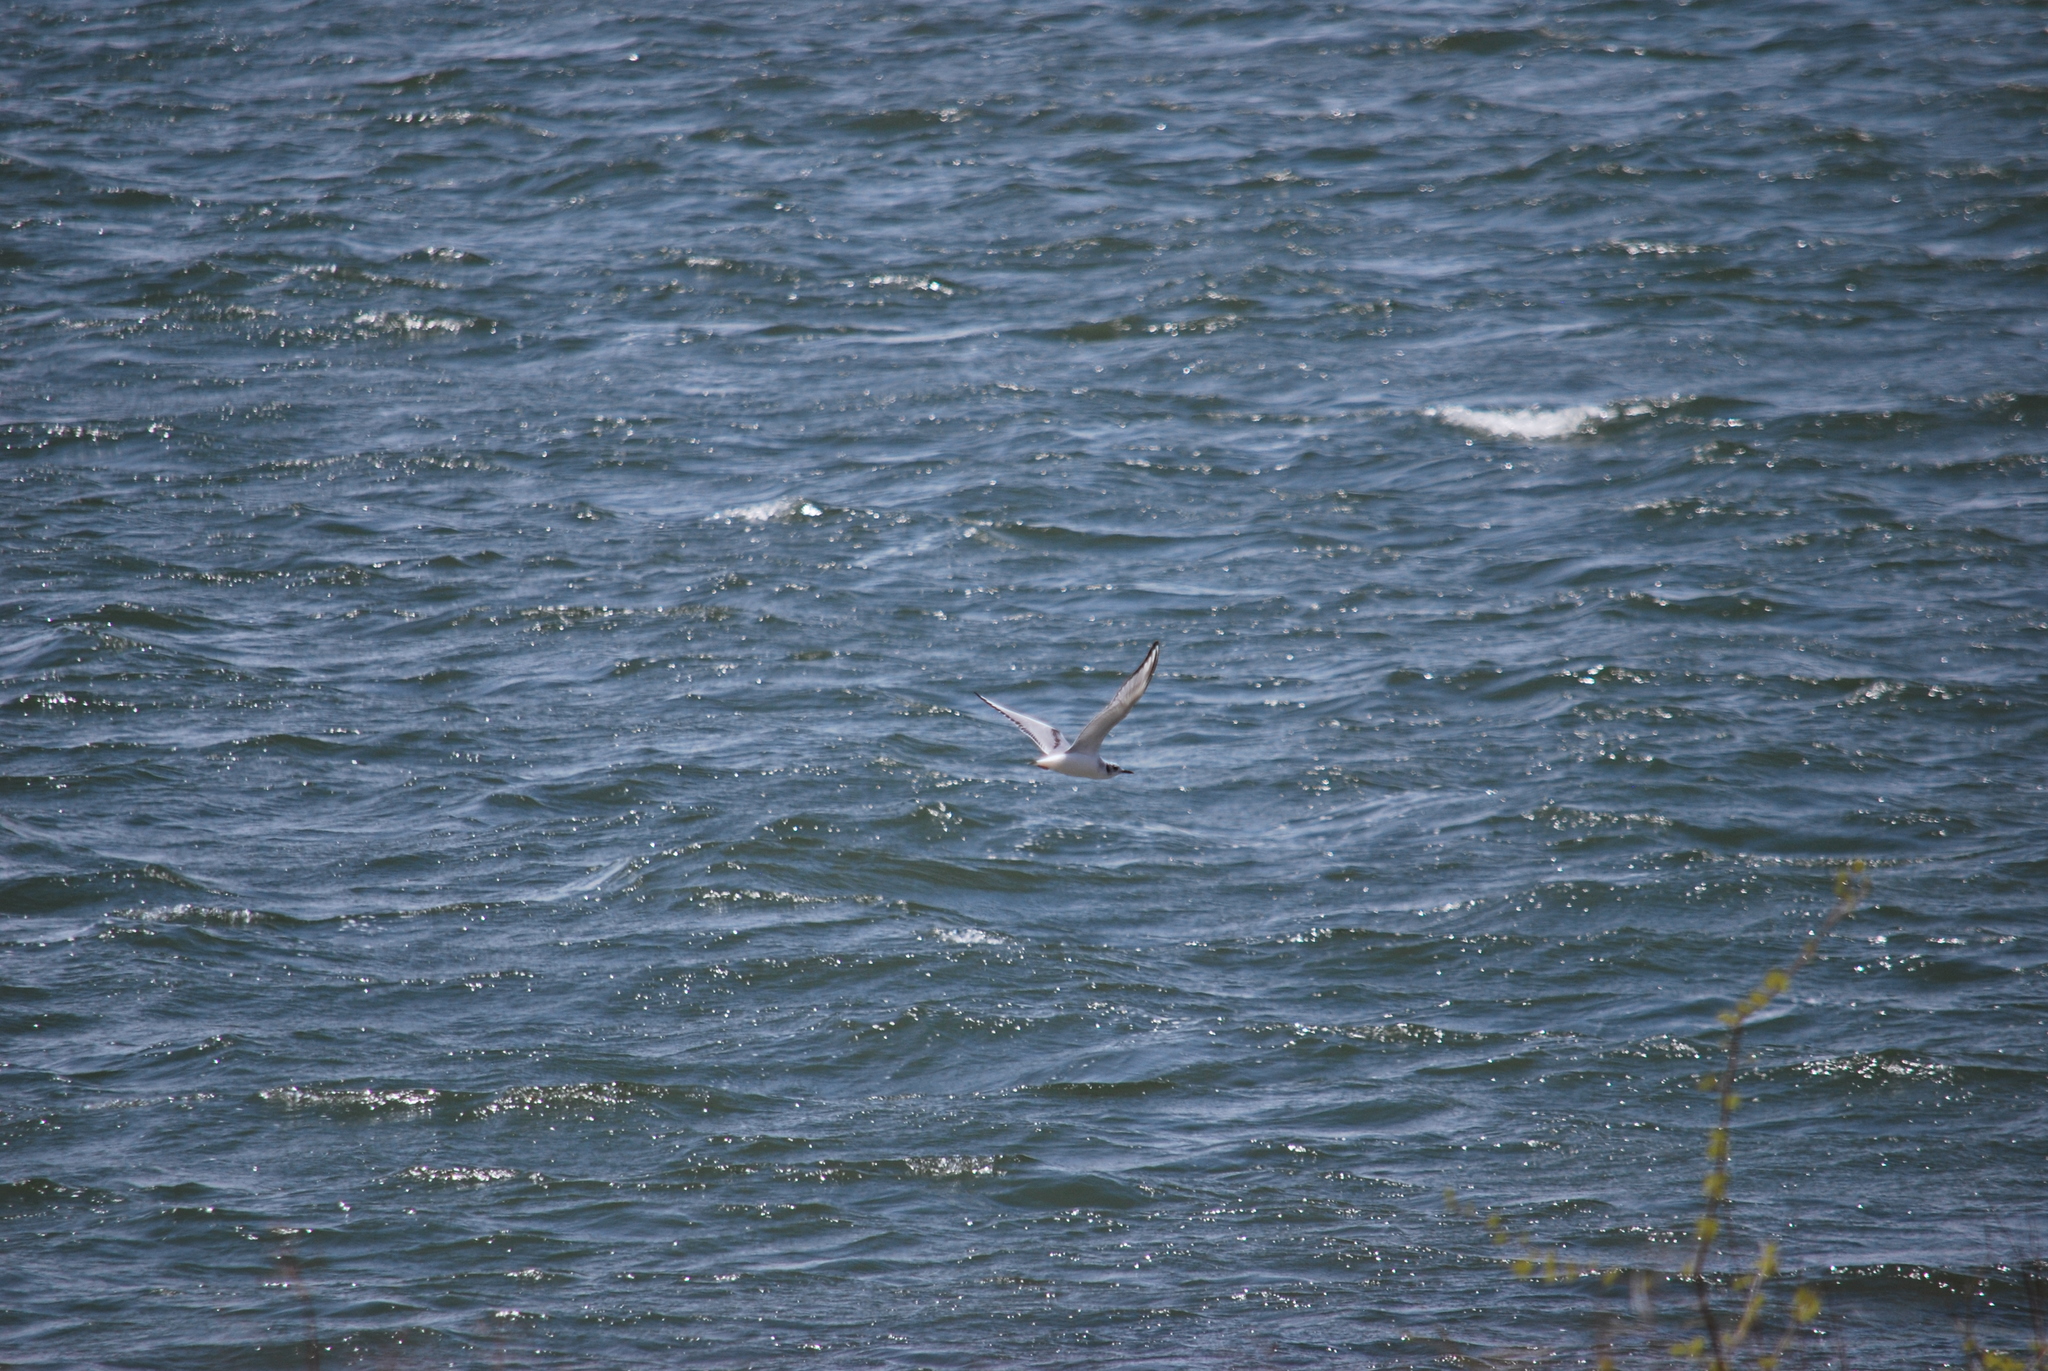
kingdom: Animalia
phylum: Chordata
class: Aves
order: Charadriiformes
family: Laridae
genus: Chroicocephalus
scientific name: Chroicocephalus philadelphia
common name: Bonaparte's gull
